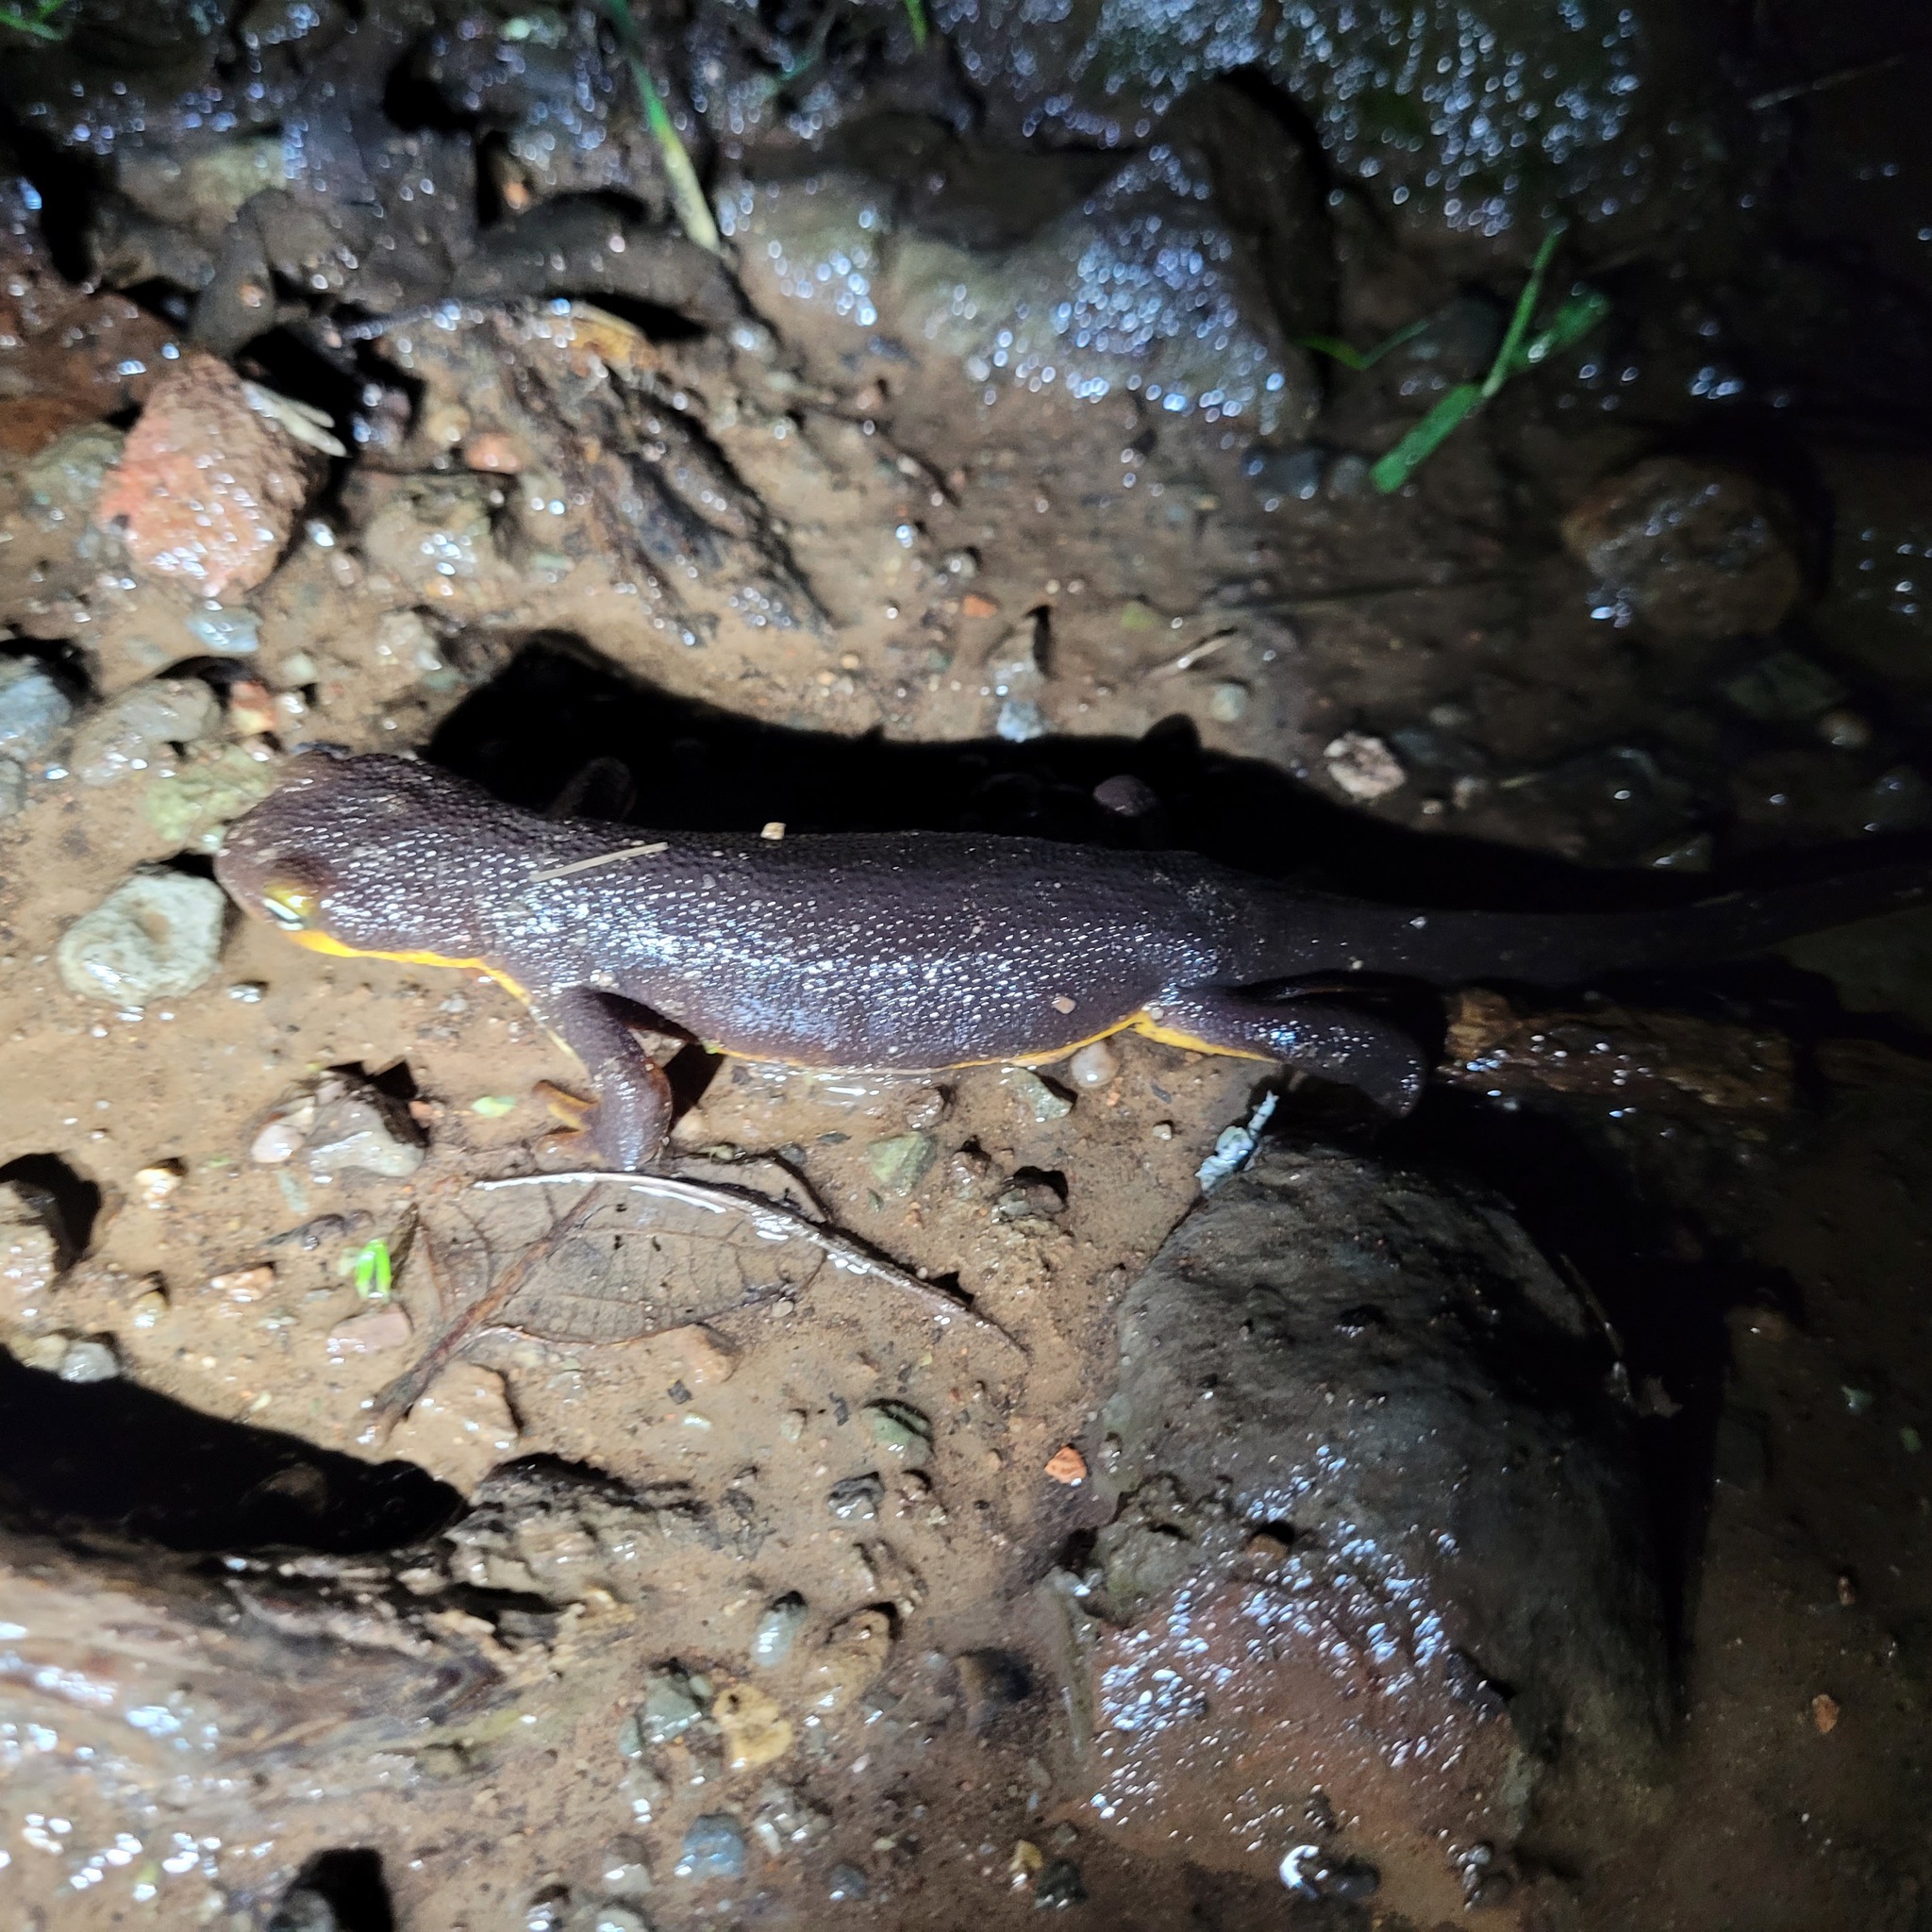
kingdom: Animalia
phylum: Chordata
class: Amphibia
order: Caudata
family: Salamandridae
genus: Taricha
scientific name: Taricha torosa
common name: California newt
